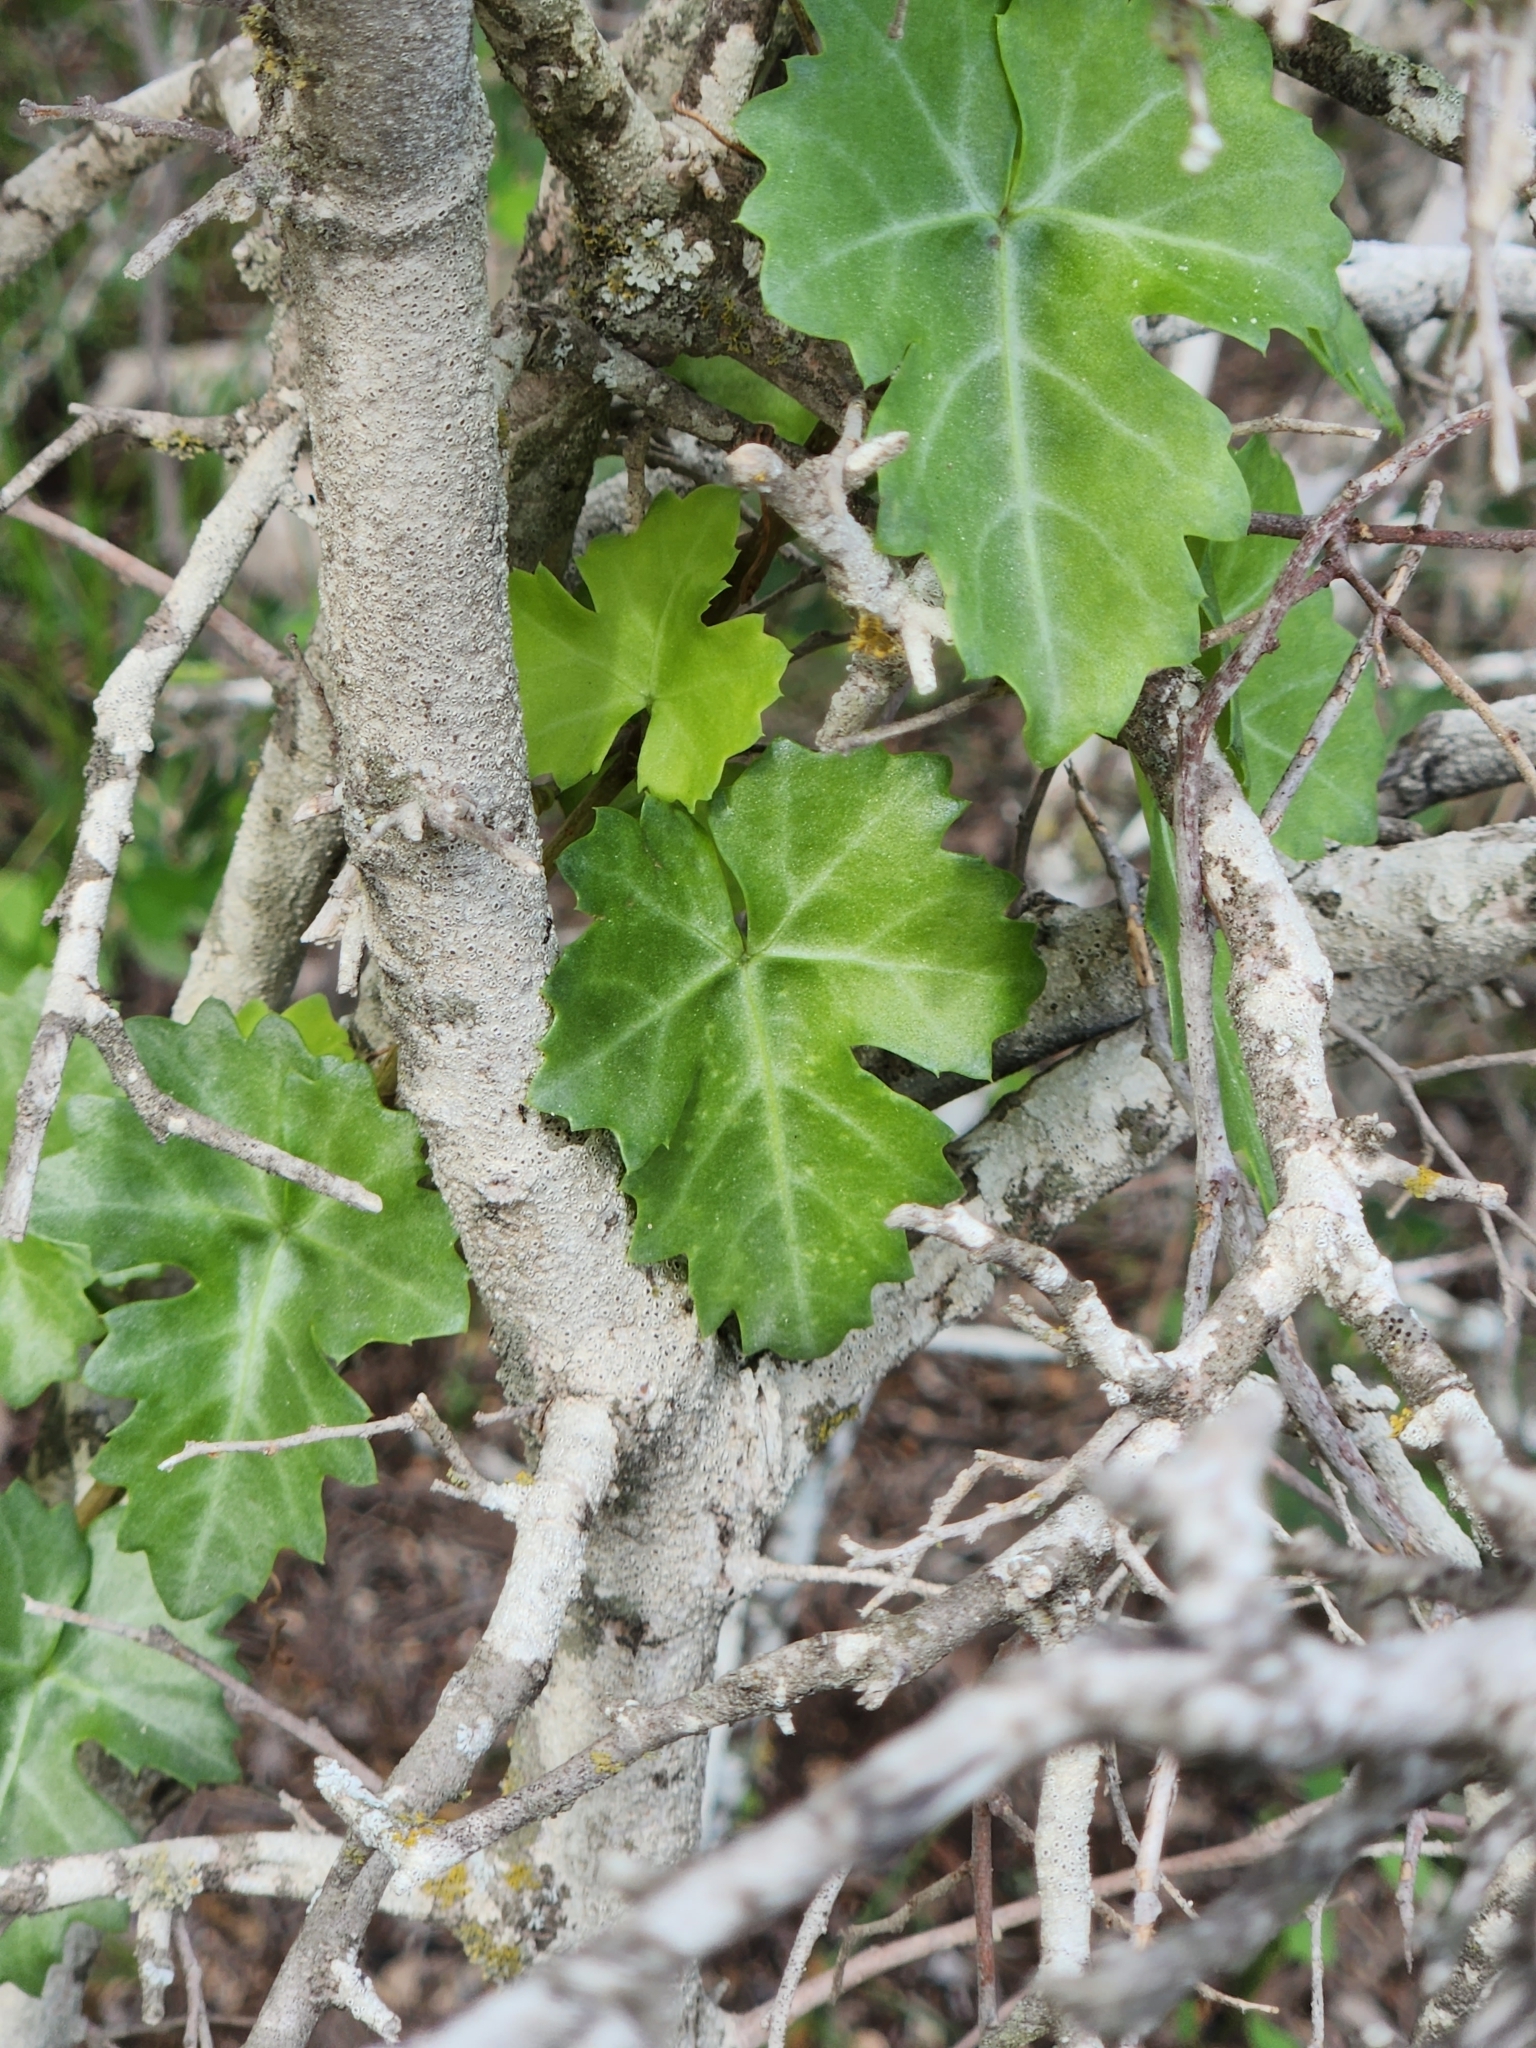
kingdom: Plantae
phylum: Tracheophyta
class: Magnoliopsida
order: Vitales
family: Vitaceae
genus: Cissus
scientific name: Cissus trifoliata
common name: Vine-sorrel
